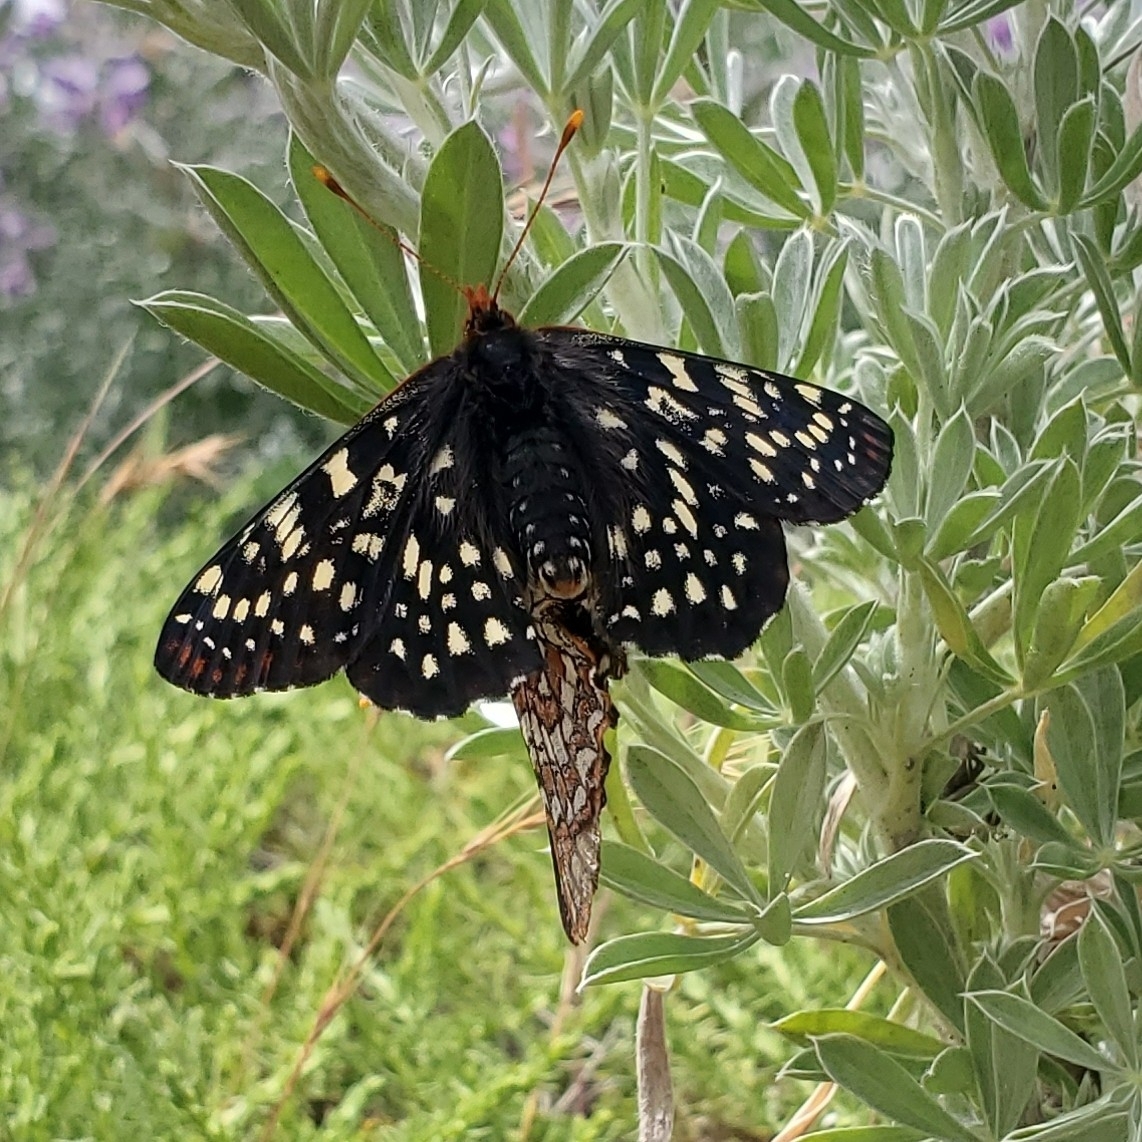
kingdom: Animalia
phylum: Arthropoda
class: Insecta
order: Lepidoptera
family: Nymphalidae
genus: Occidryas
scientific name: Occidryas chalcedona
